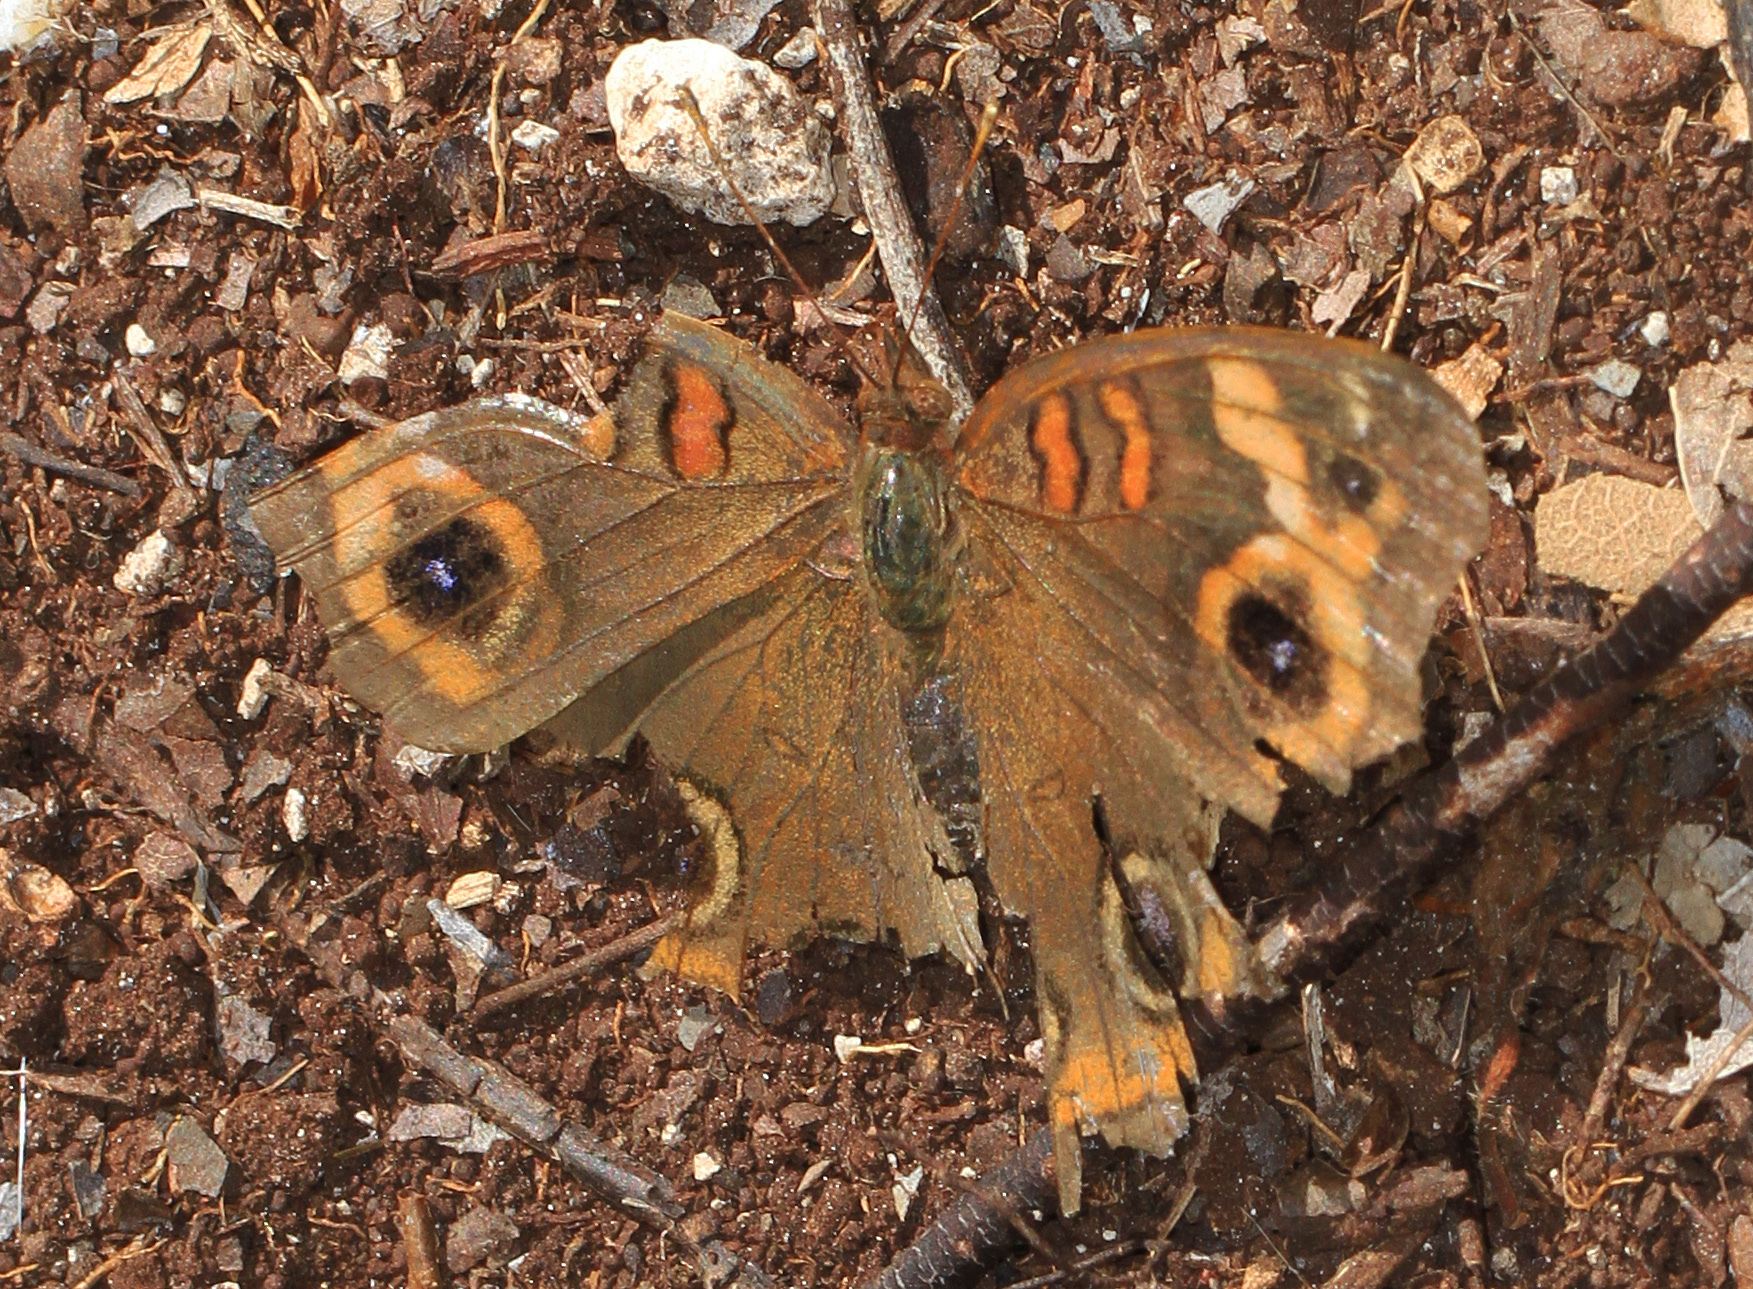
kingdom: Animalia
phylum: Arthropoda
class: Insecta
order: Lepidoptera
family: Nymphalidae
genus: Junonia
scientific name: Junonia neildi
